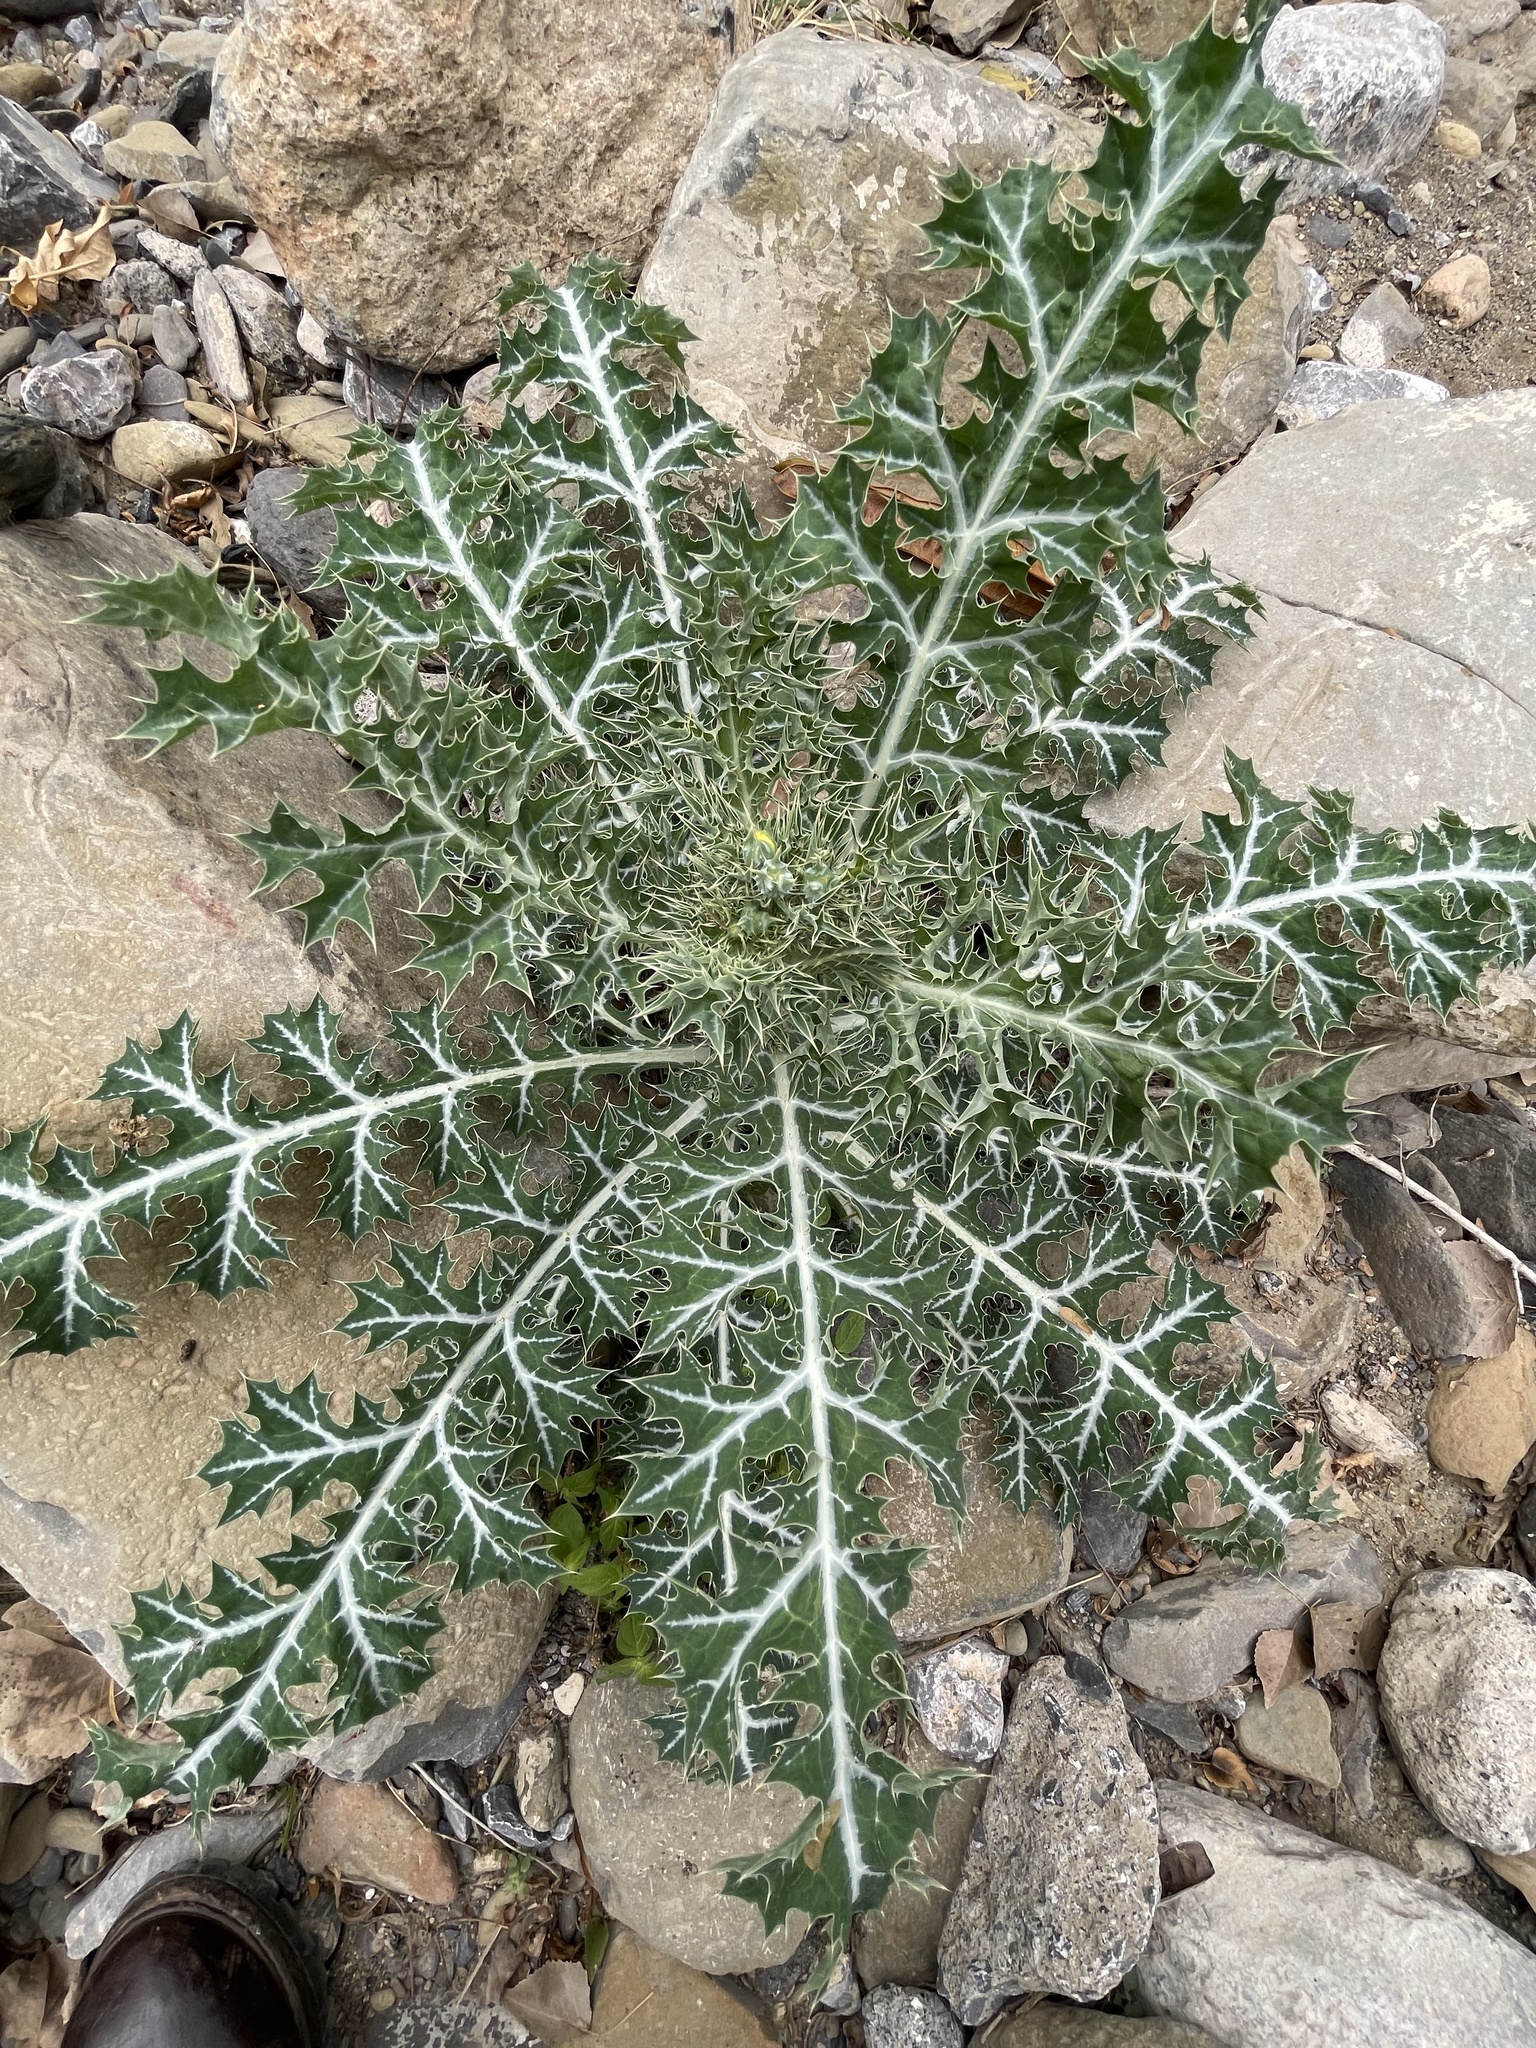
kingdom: Plantae
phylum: Tracheophyta
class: Magnoliopsida
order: Ranunculales
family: Papaveraceae
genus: Argemone
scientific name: Argemone mexicana
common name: Mexican poppy
